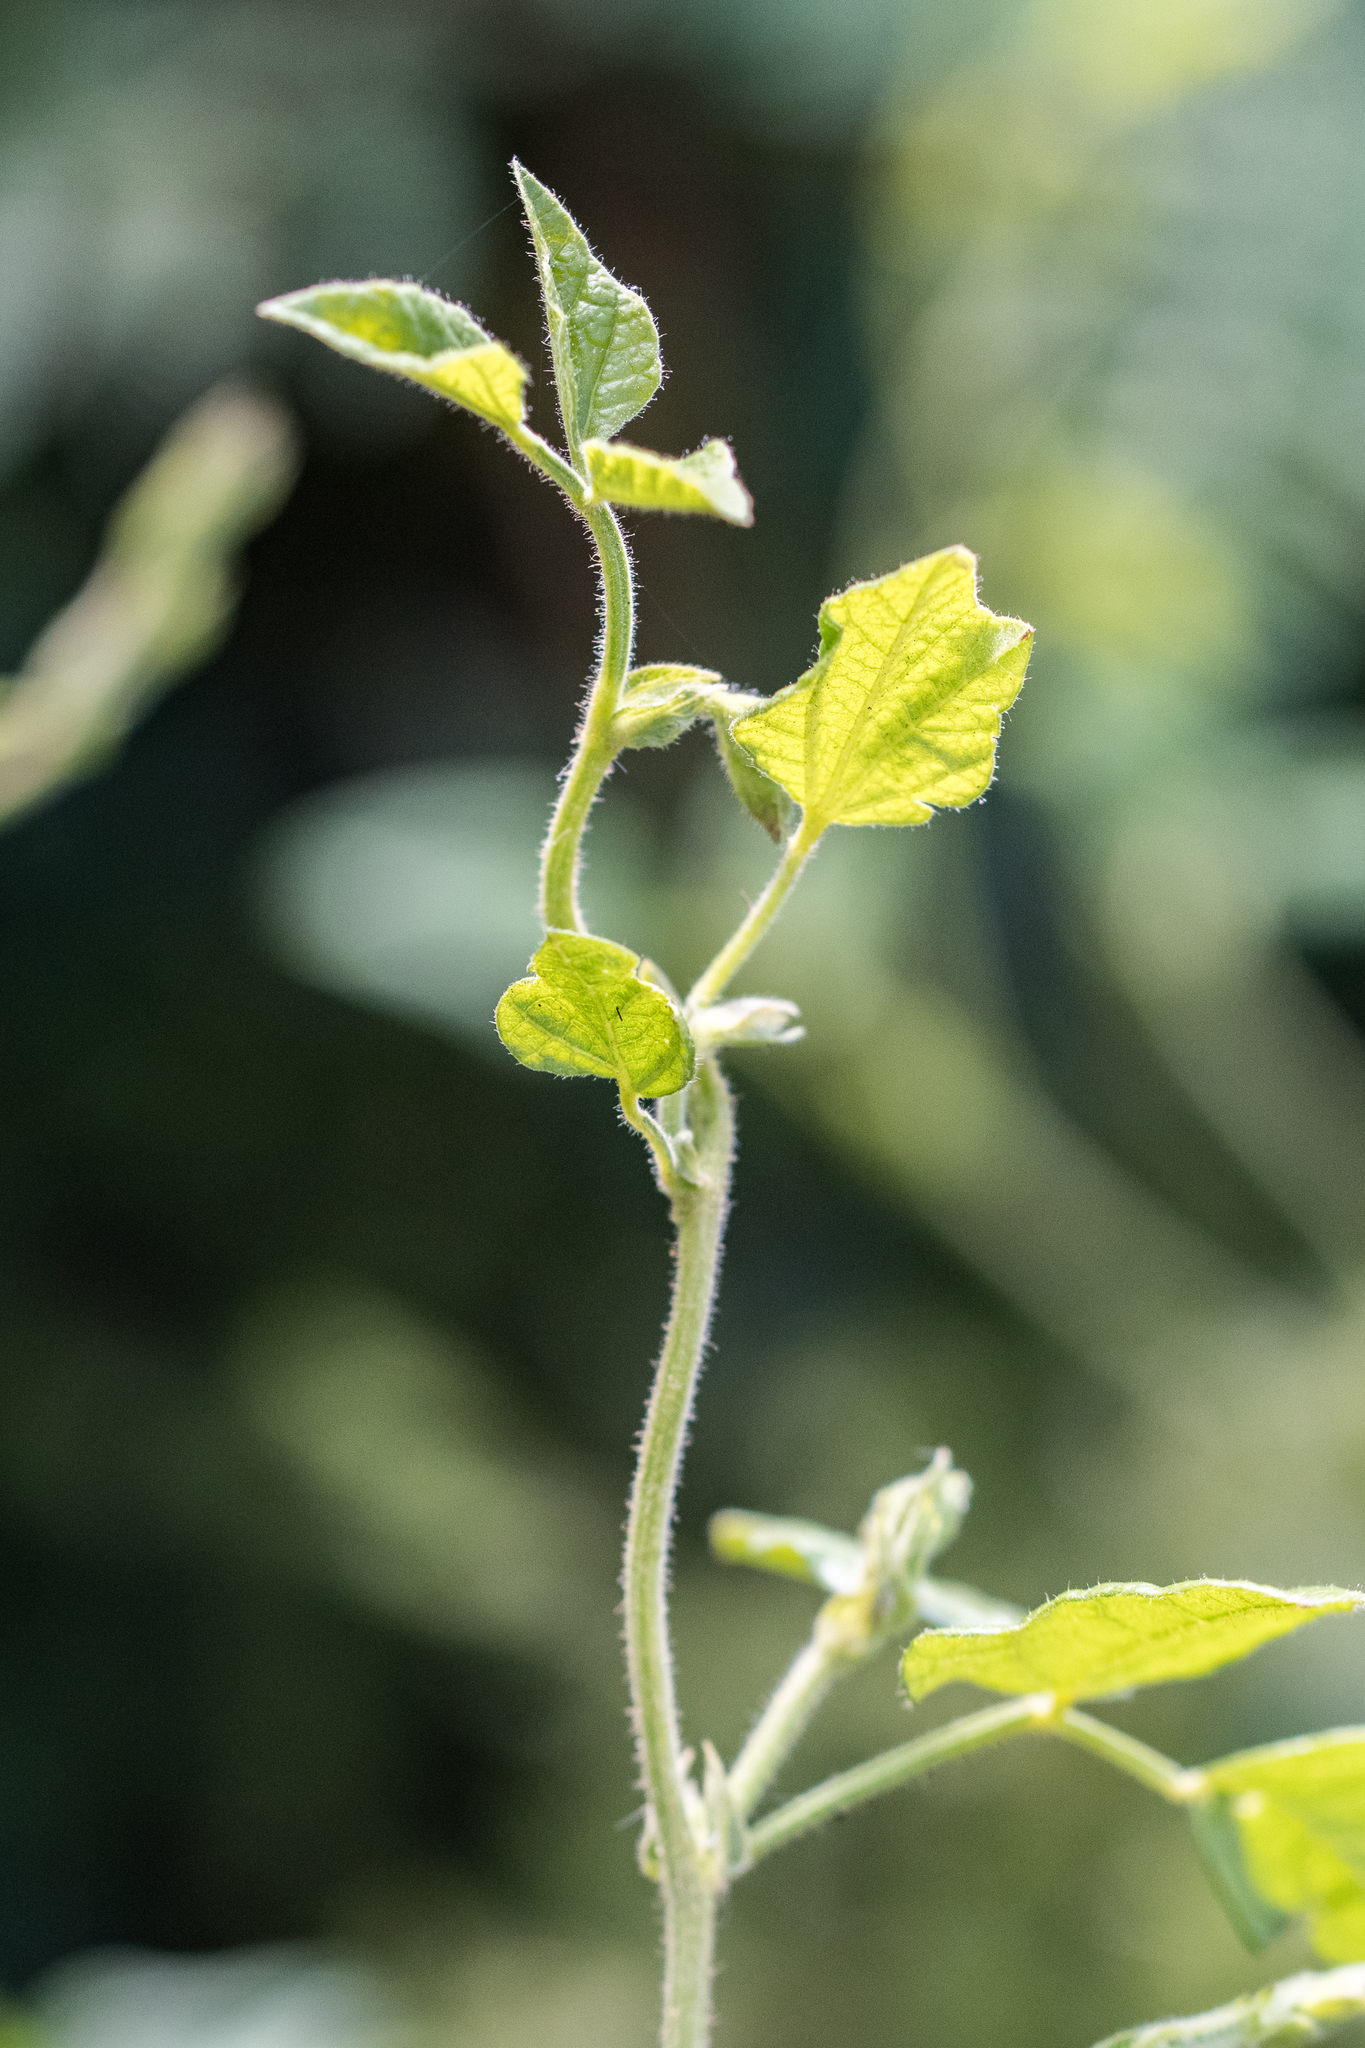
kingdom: Plantae
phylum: Tracheophyta
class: Magnoliopsida
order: Fabales
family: Fabaceae
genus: Bolusafra
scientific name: Bolusafra bituminosa
